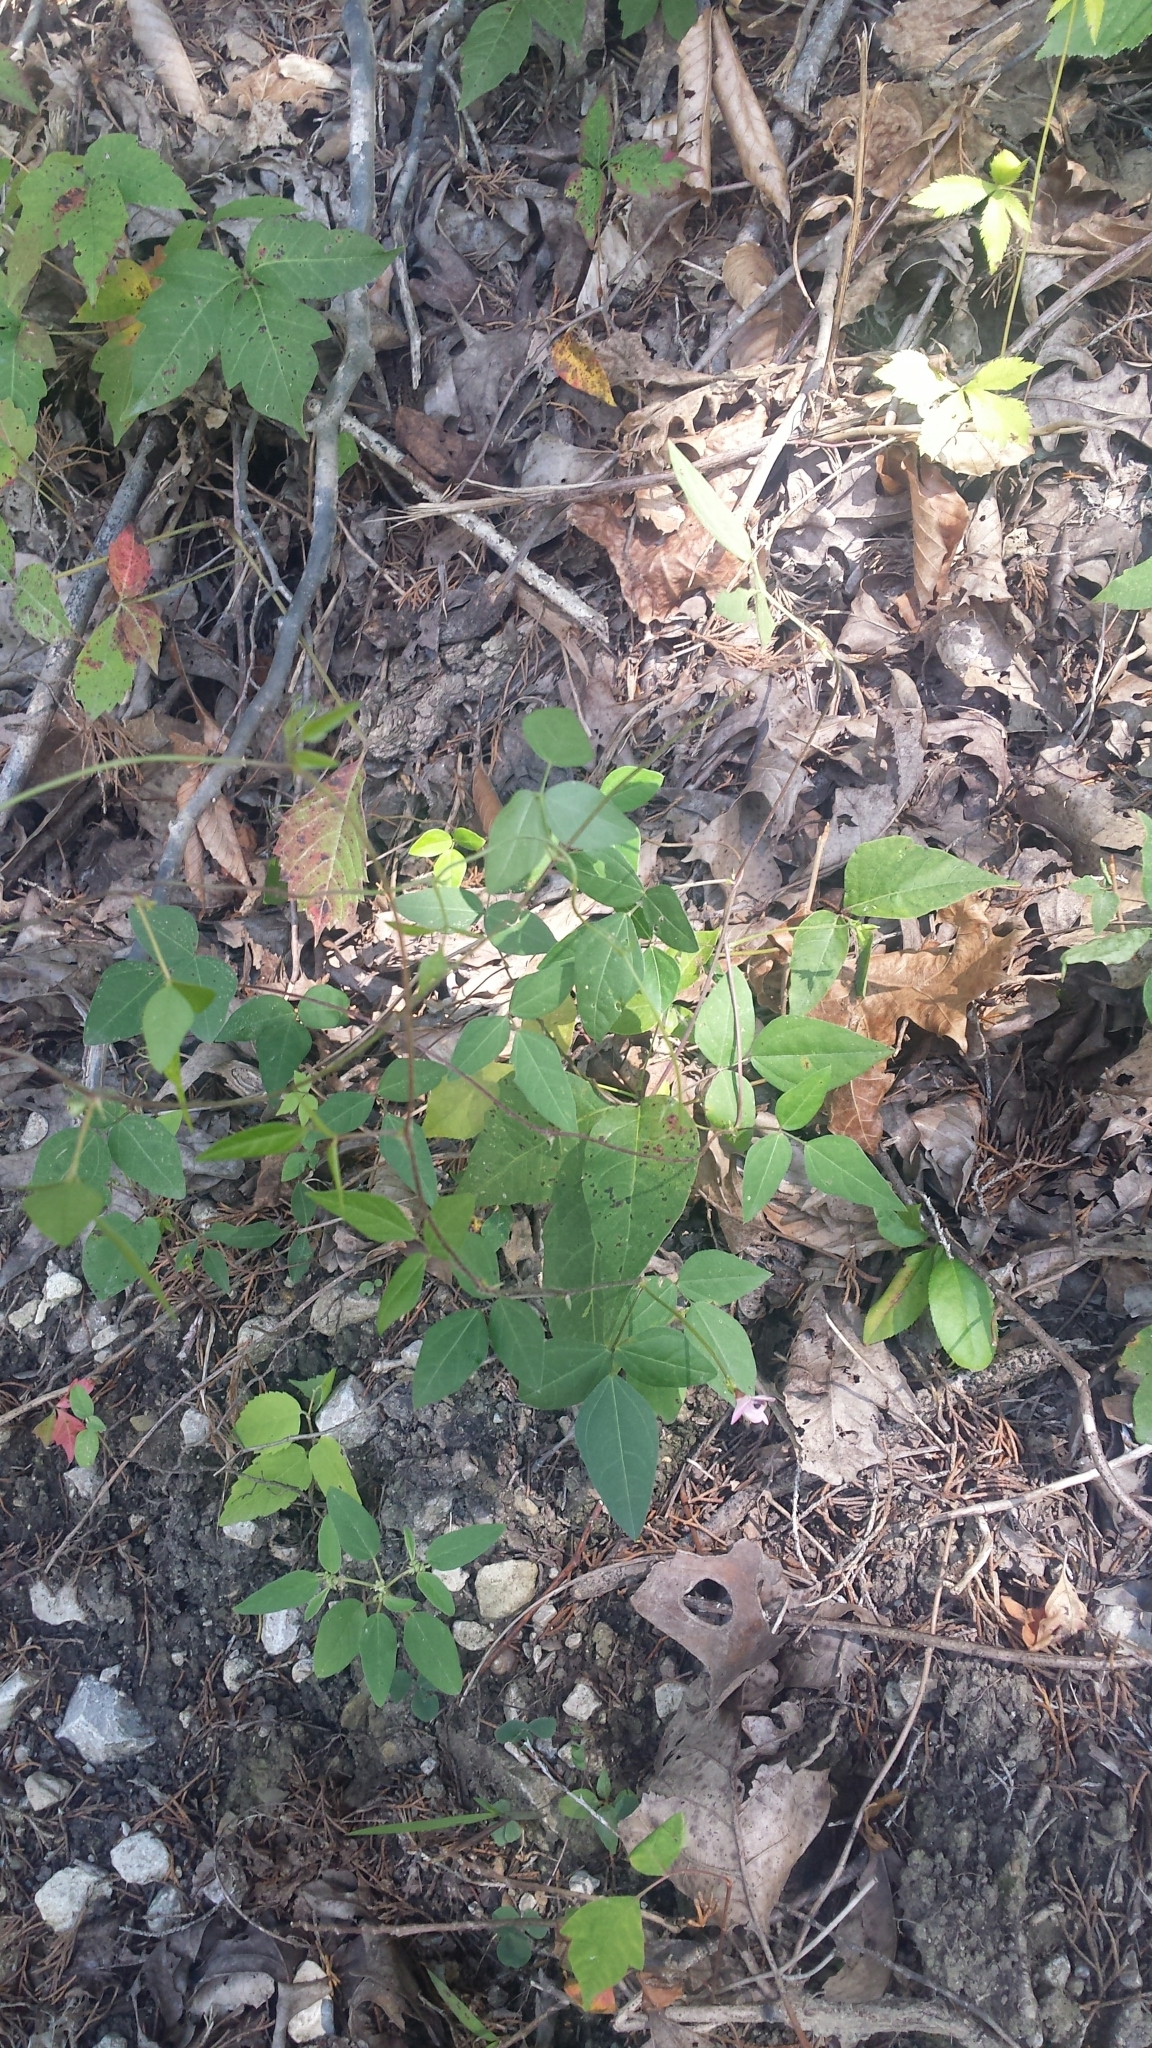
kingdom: Plantae
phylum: Tracheophyta
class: Magnoliopsida
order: Fabales
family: Fabaceae
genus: Strophostyles
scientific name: Strophostyles helvola
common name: Trailing wild bean
